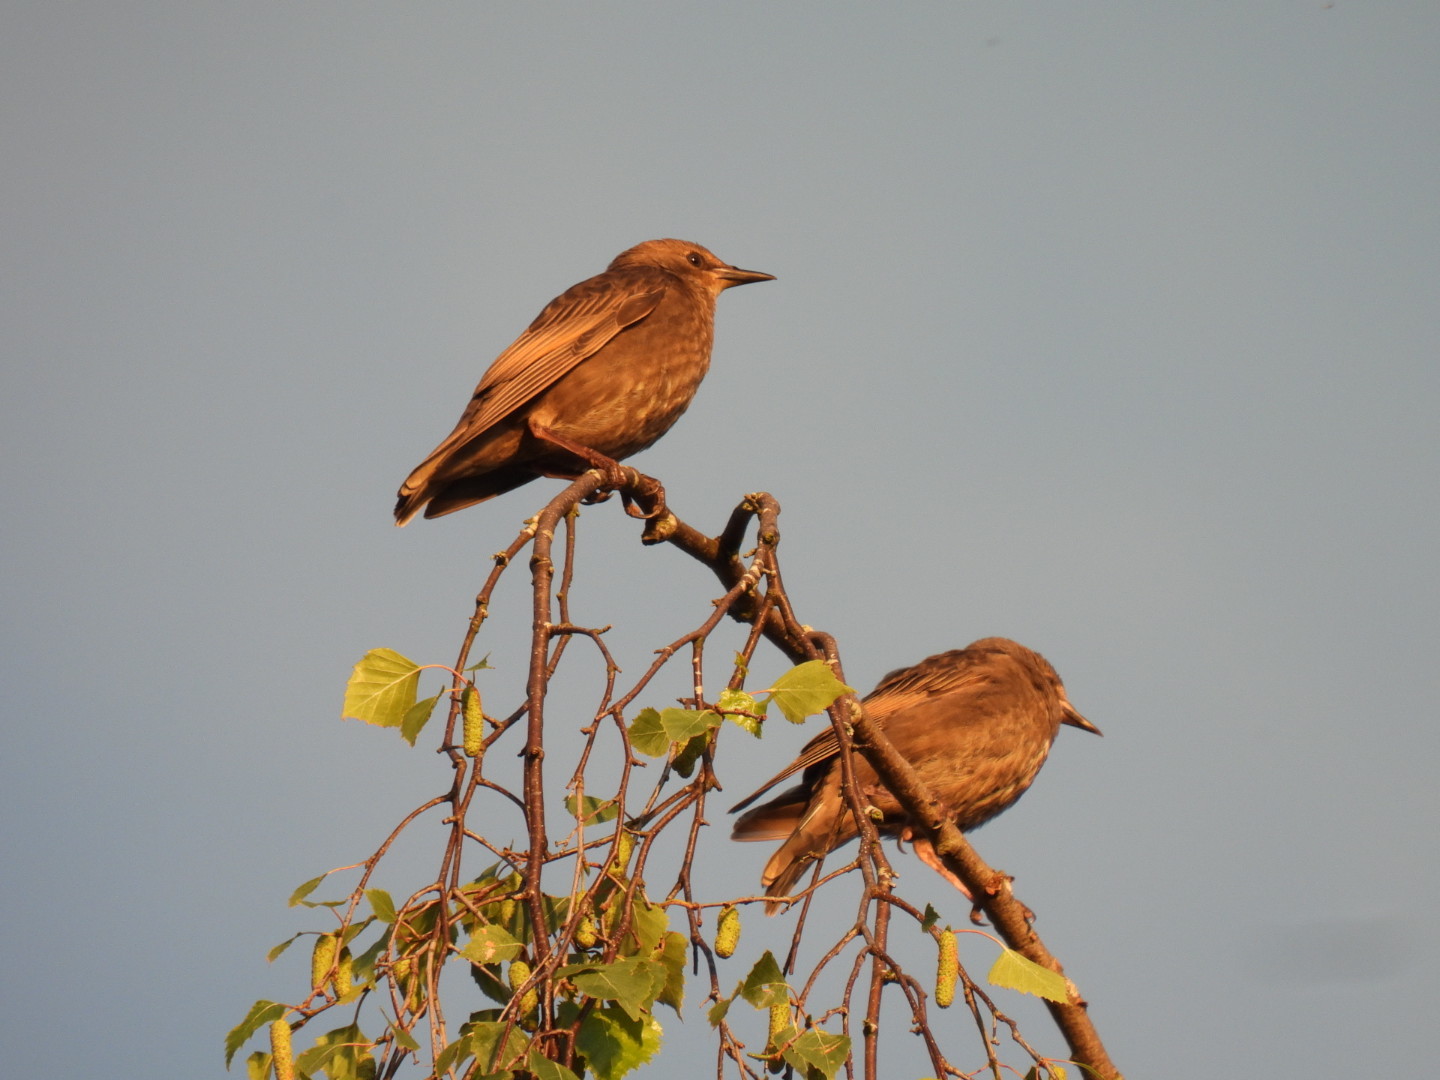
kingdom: Animalia
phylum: Chordata
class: Aves
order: Passeriformes
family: Sturnidae
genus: Sturnus
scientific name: Sturnus vulgaris
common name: Common starling
